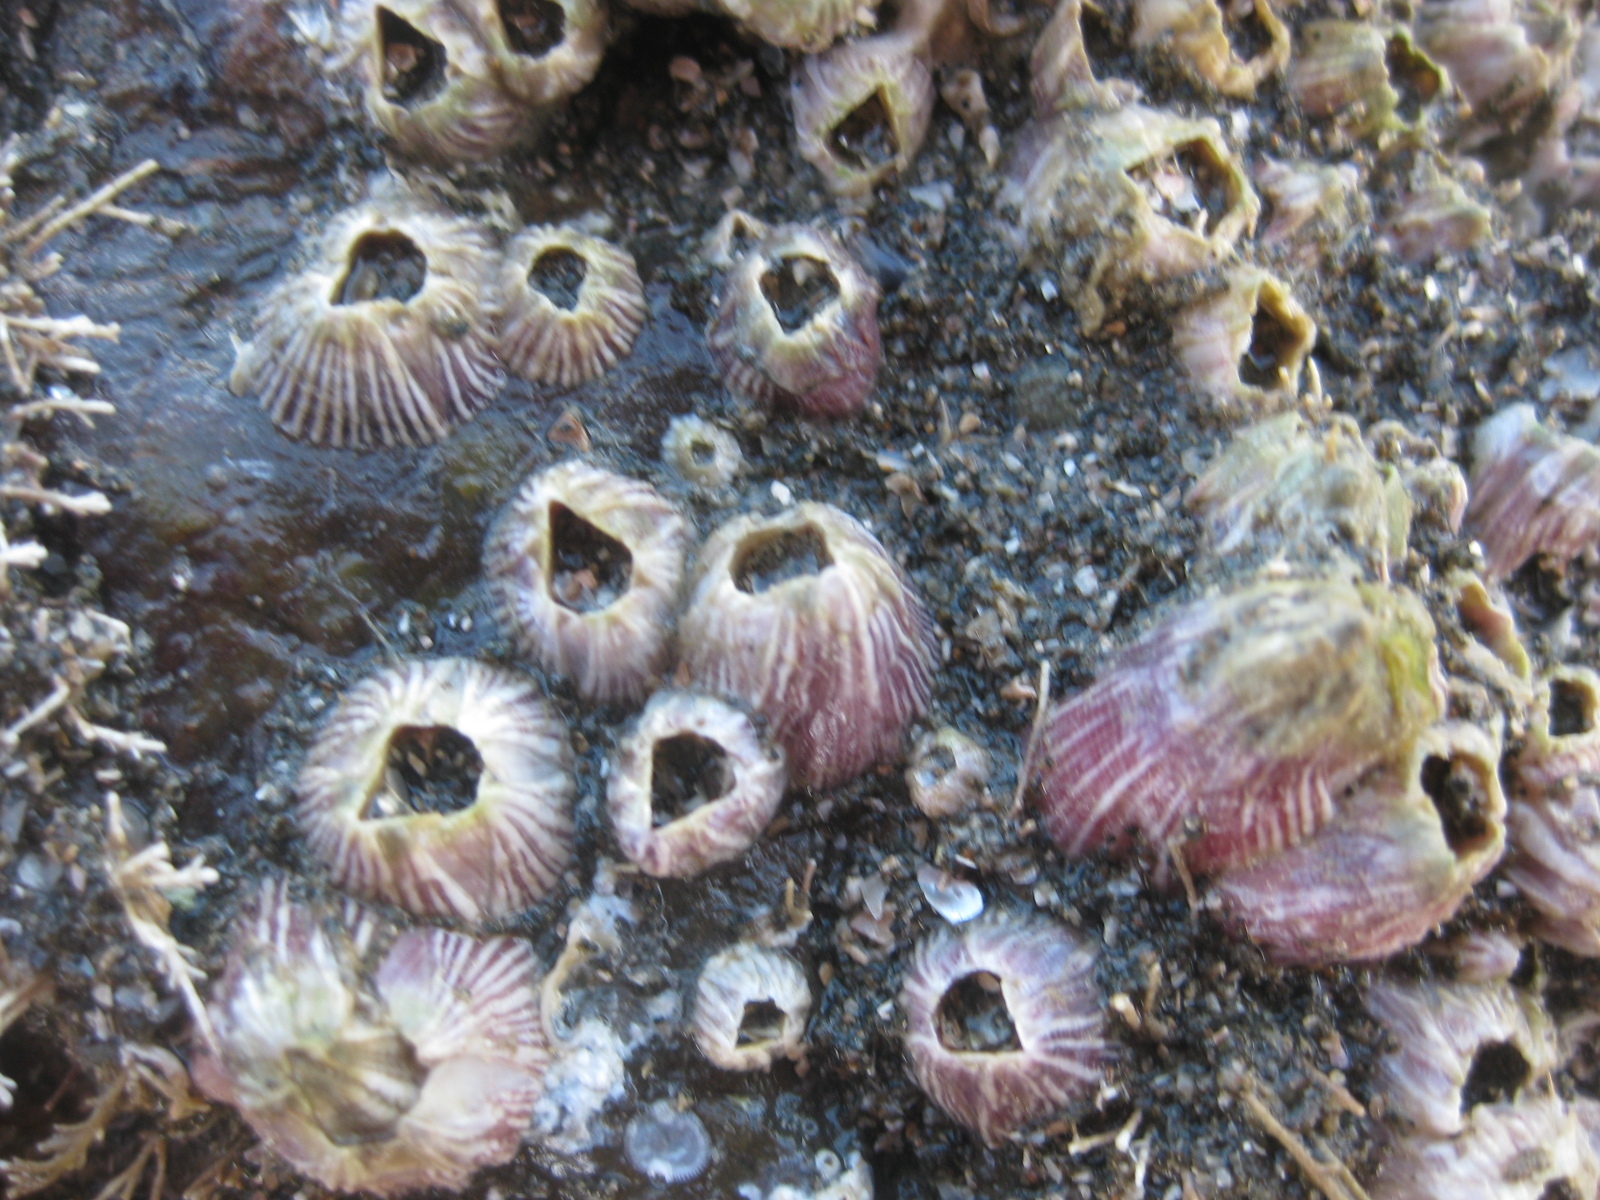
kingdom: Animalia
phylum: Arthropoda
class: Maxillopoda
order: Sessilia
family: Balanidae
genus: Balanus
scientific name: Balanus trigonus
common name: Triangle barnacle
